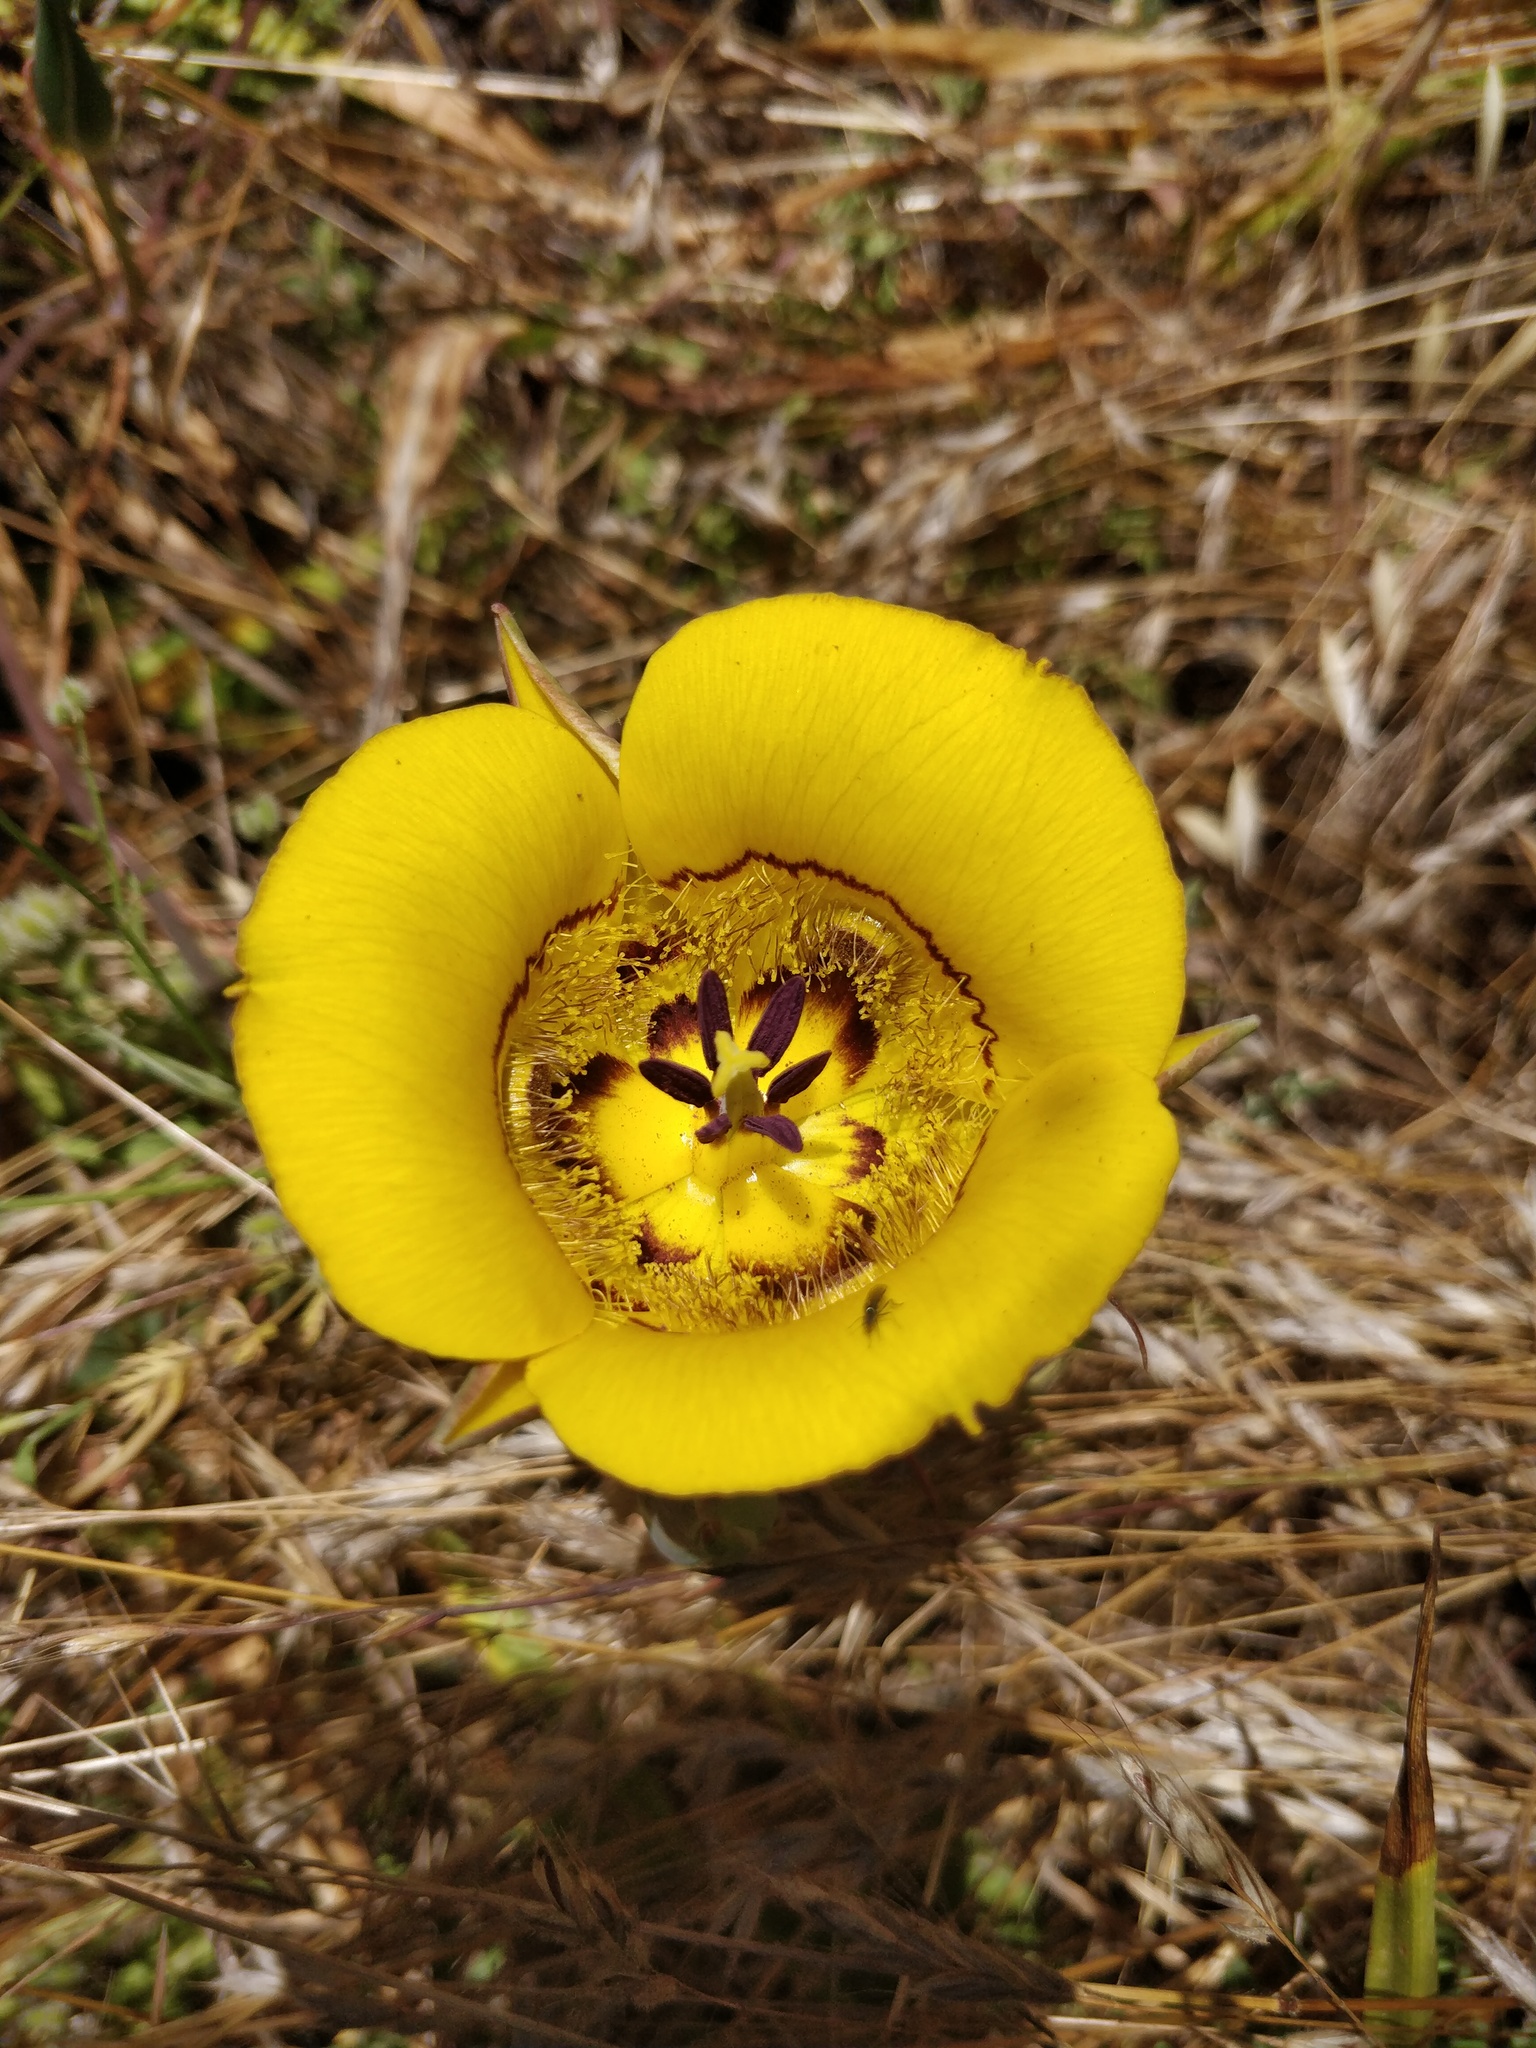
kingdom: Plantae
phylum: Tracheophyta
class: Liliopsida
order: Liliales
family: Liliaceae
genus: Calochortus
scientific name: Calochortus clavatus
